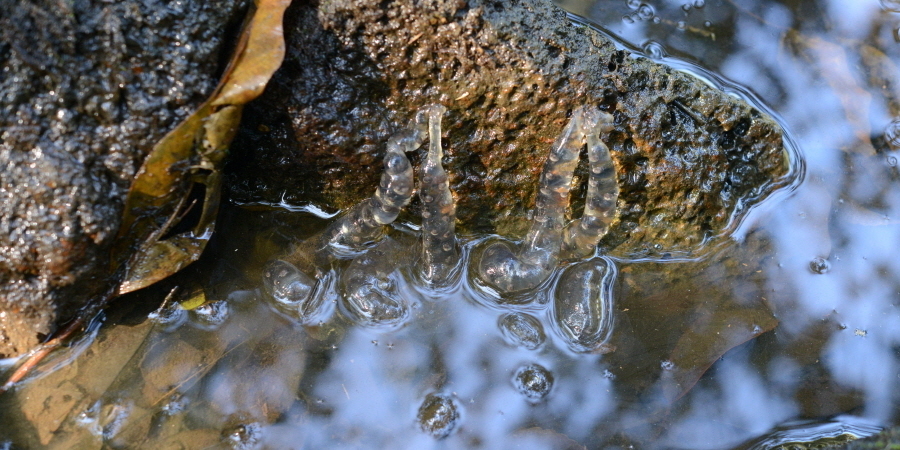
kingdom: Animalia
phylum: Chordata
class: Amphibia
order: Caudata
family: Hynobiidae
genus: Hynobius
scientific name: Hynobius quelpaertensis
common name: Cheju salamander
